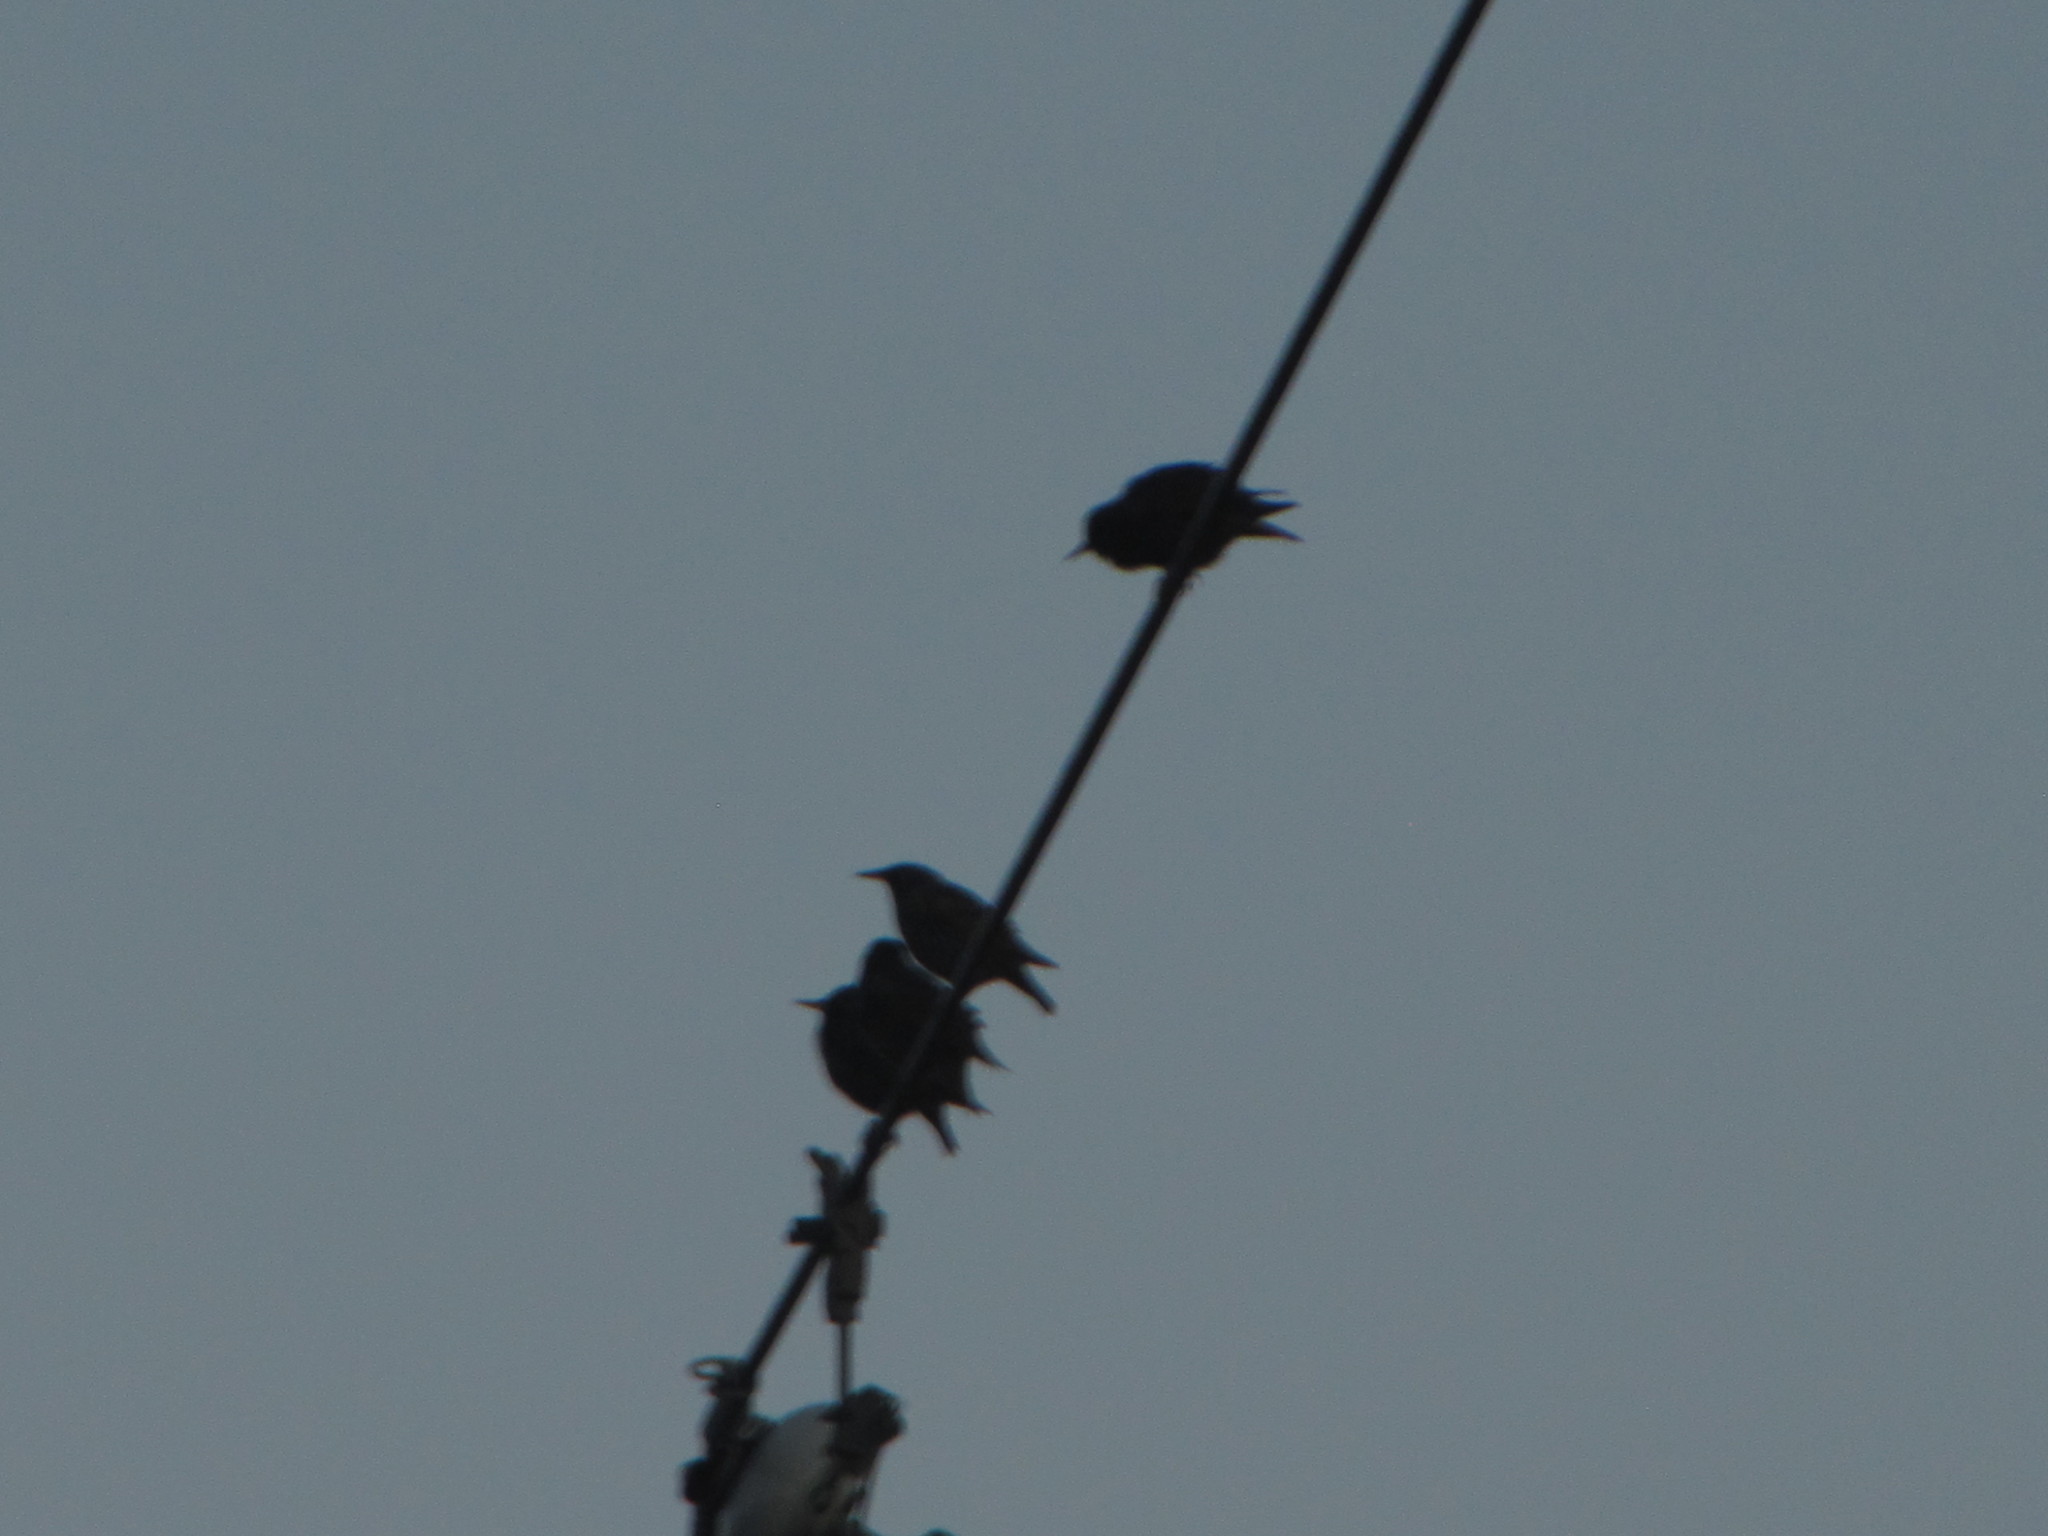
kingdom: Animalia
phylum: Chordata
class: Aves
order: Passeriformes
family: Sturnidae
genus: Sturnus
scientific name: Sturnus vulgaris
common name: Common starling
